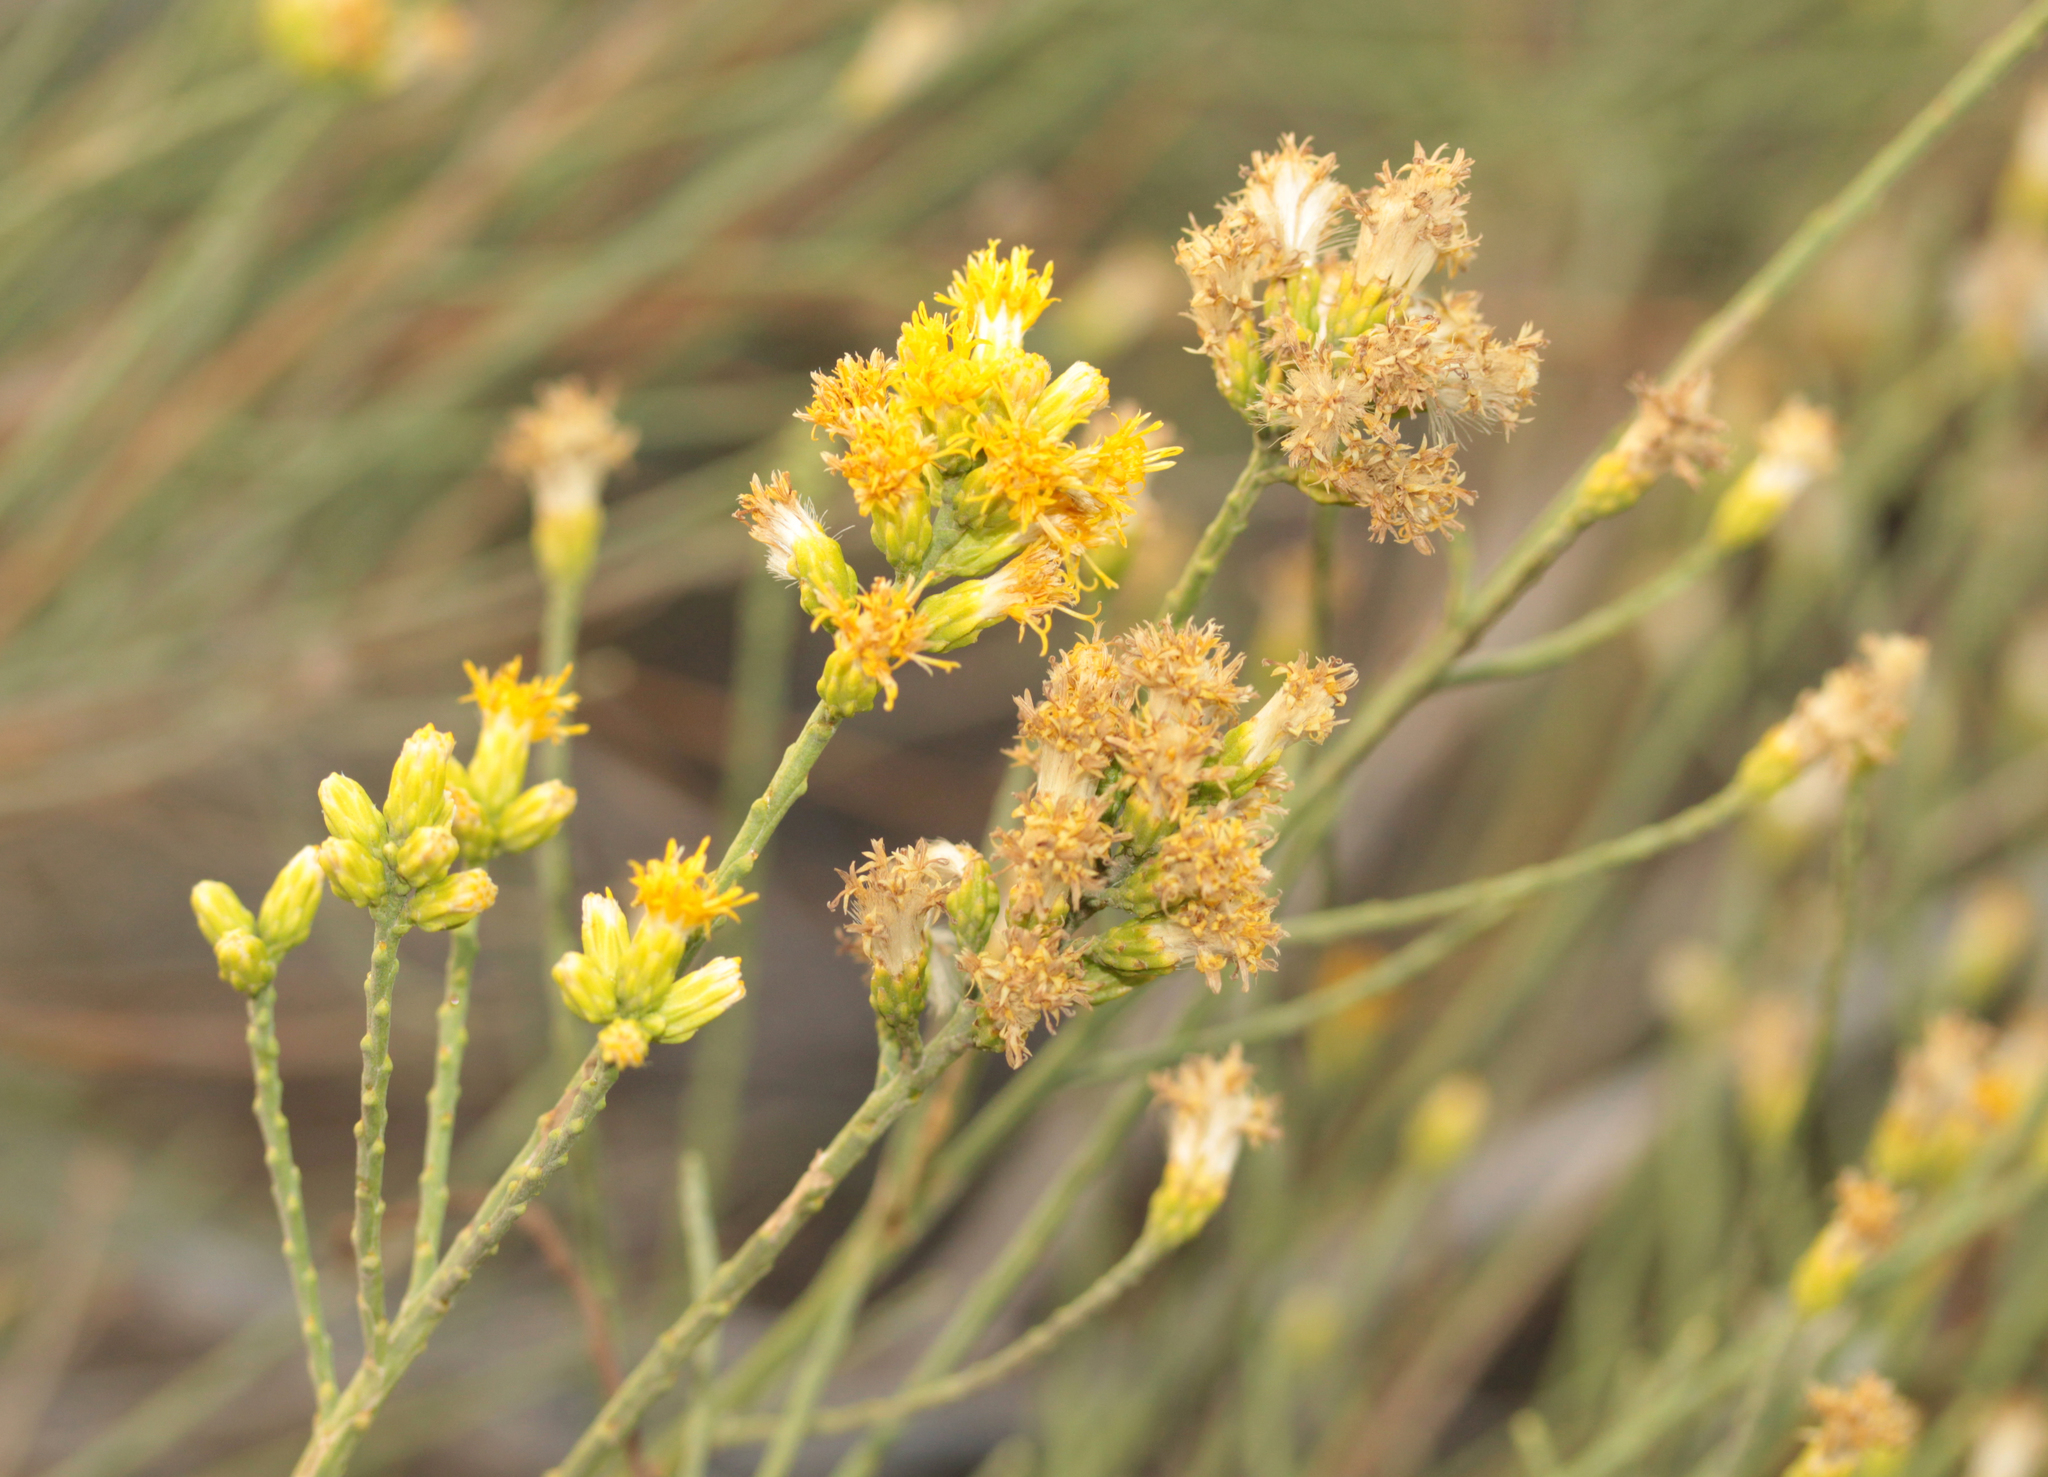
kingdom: Plantae
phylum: Tracheophyta
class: Magnoliopsida
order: Asterales
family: Asteraceae
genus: Lepidospartum
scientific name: Lepidospartum squamatum
